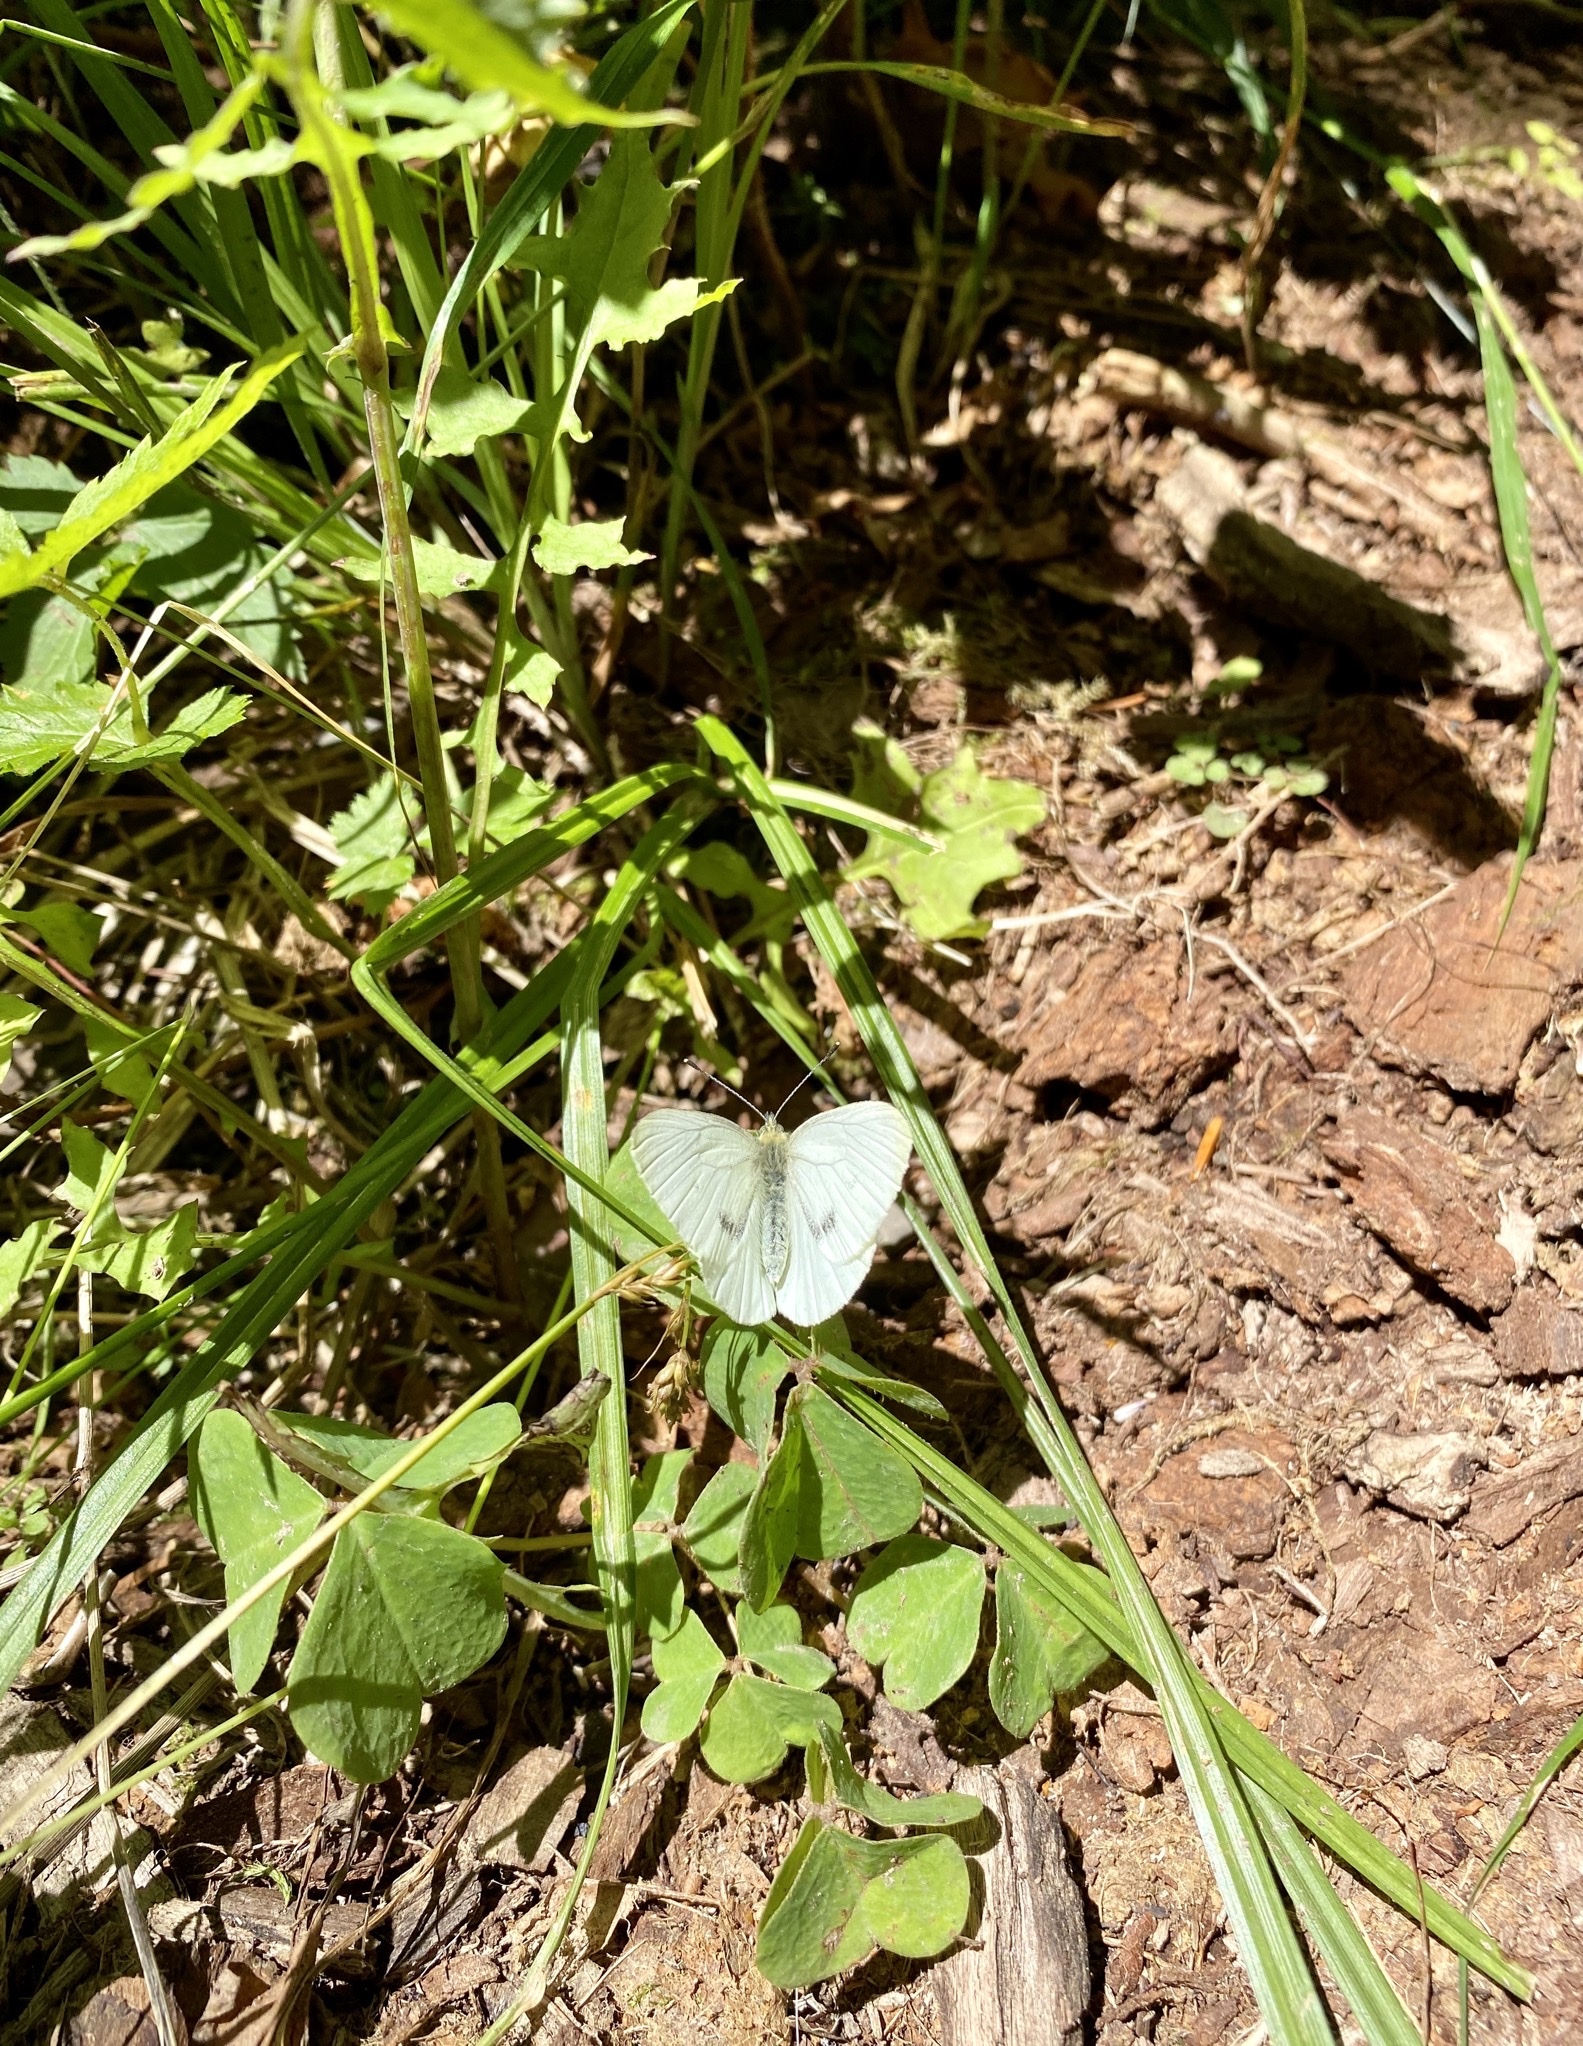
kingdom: Animalia
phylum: Arthropoda
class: Insecta
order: Lepidoptera
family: Pieridae
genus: Pieris
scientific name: Pieris marginalis
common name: Margined white
